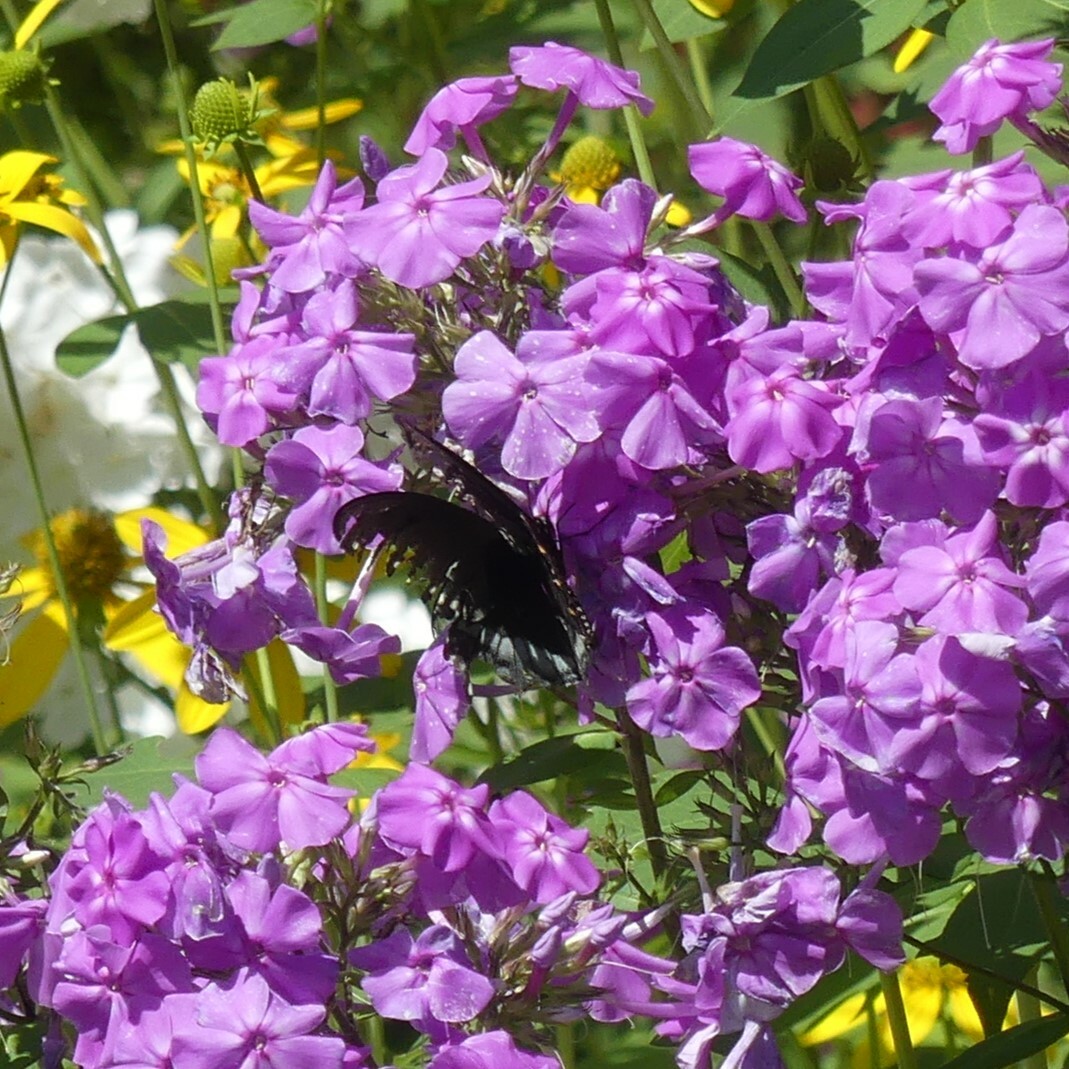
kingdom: Animalia
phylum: Arthropoda
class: Insecta
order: Lepidoptera
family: Papilionidae
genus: Papilio
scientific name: Papilio troilus
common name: Spicebush swallowtail
